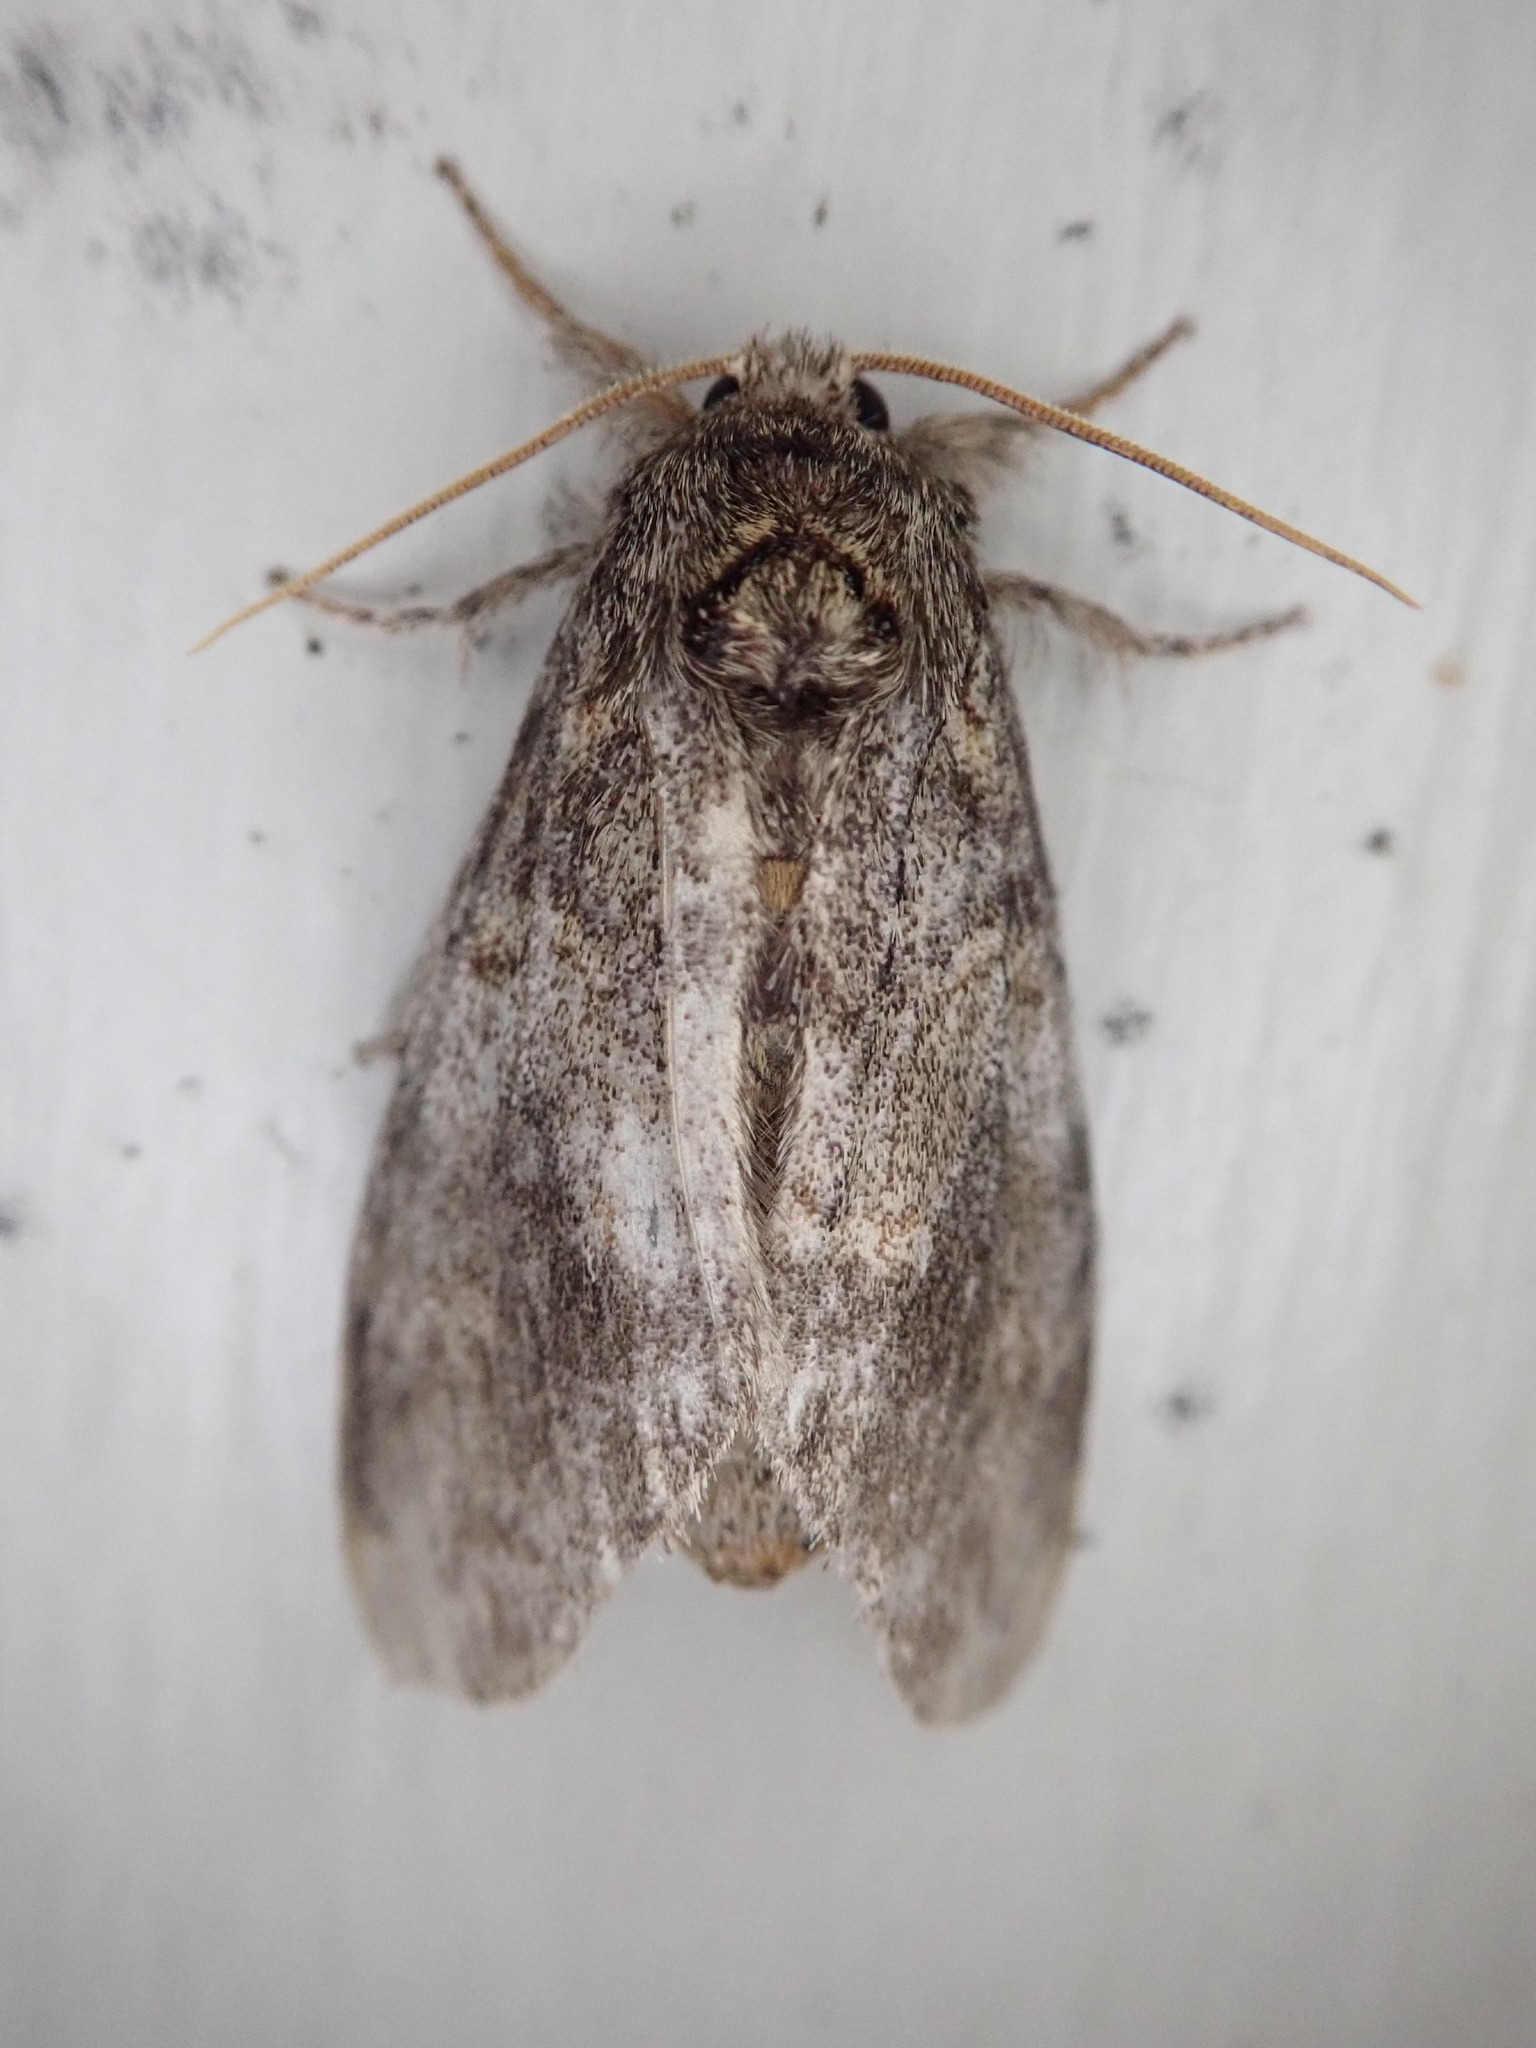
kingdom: Animalia
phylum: Arthropoda
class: Insecta
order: Lepidoptera
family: Notodontidae
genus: Peridea
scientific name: Peridea angulosa
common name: Angulose prominent
